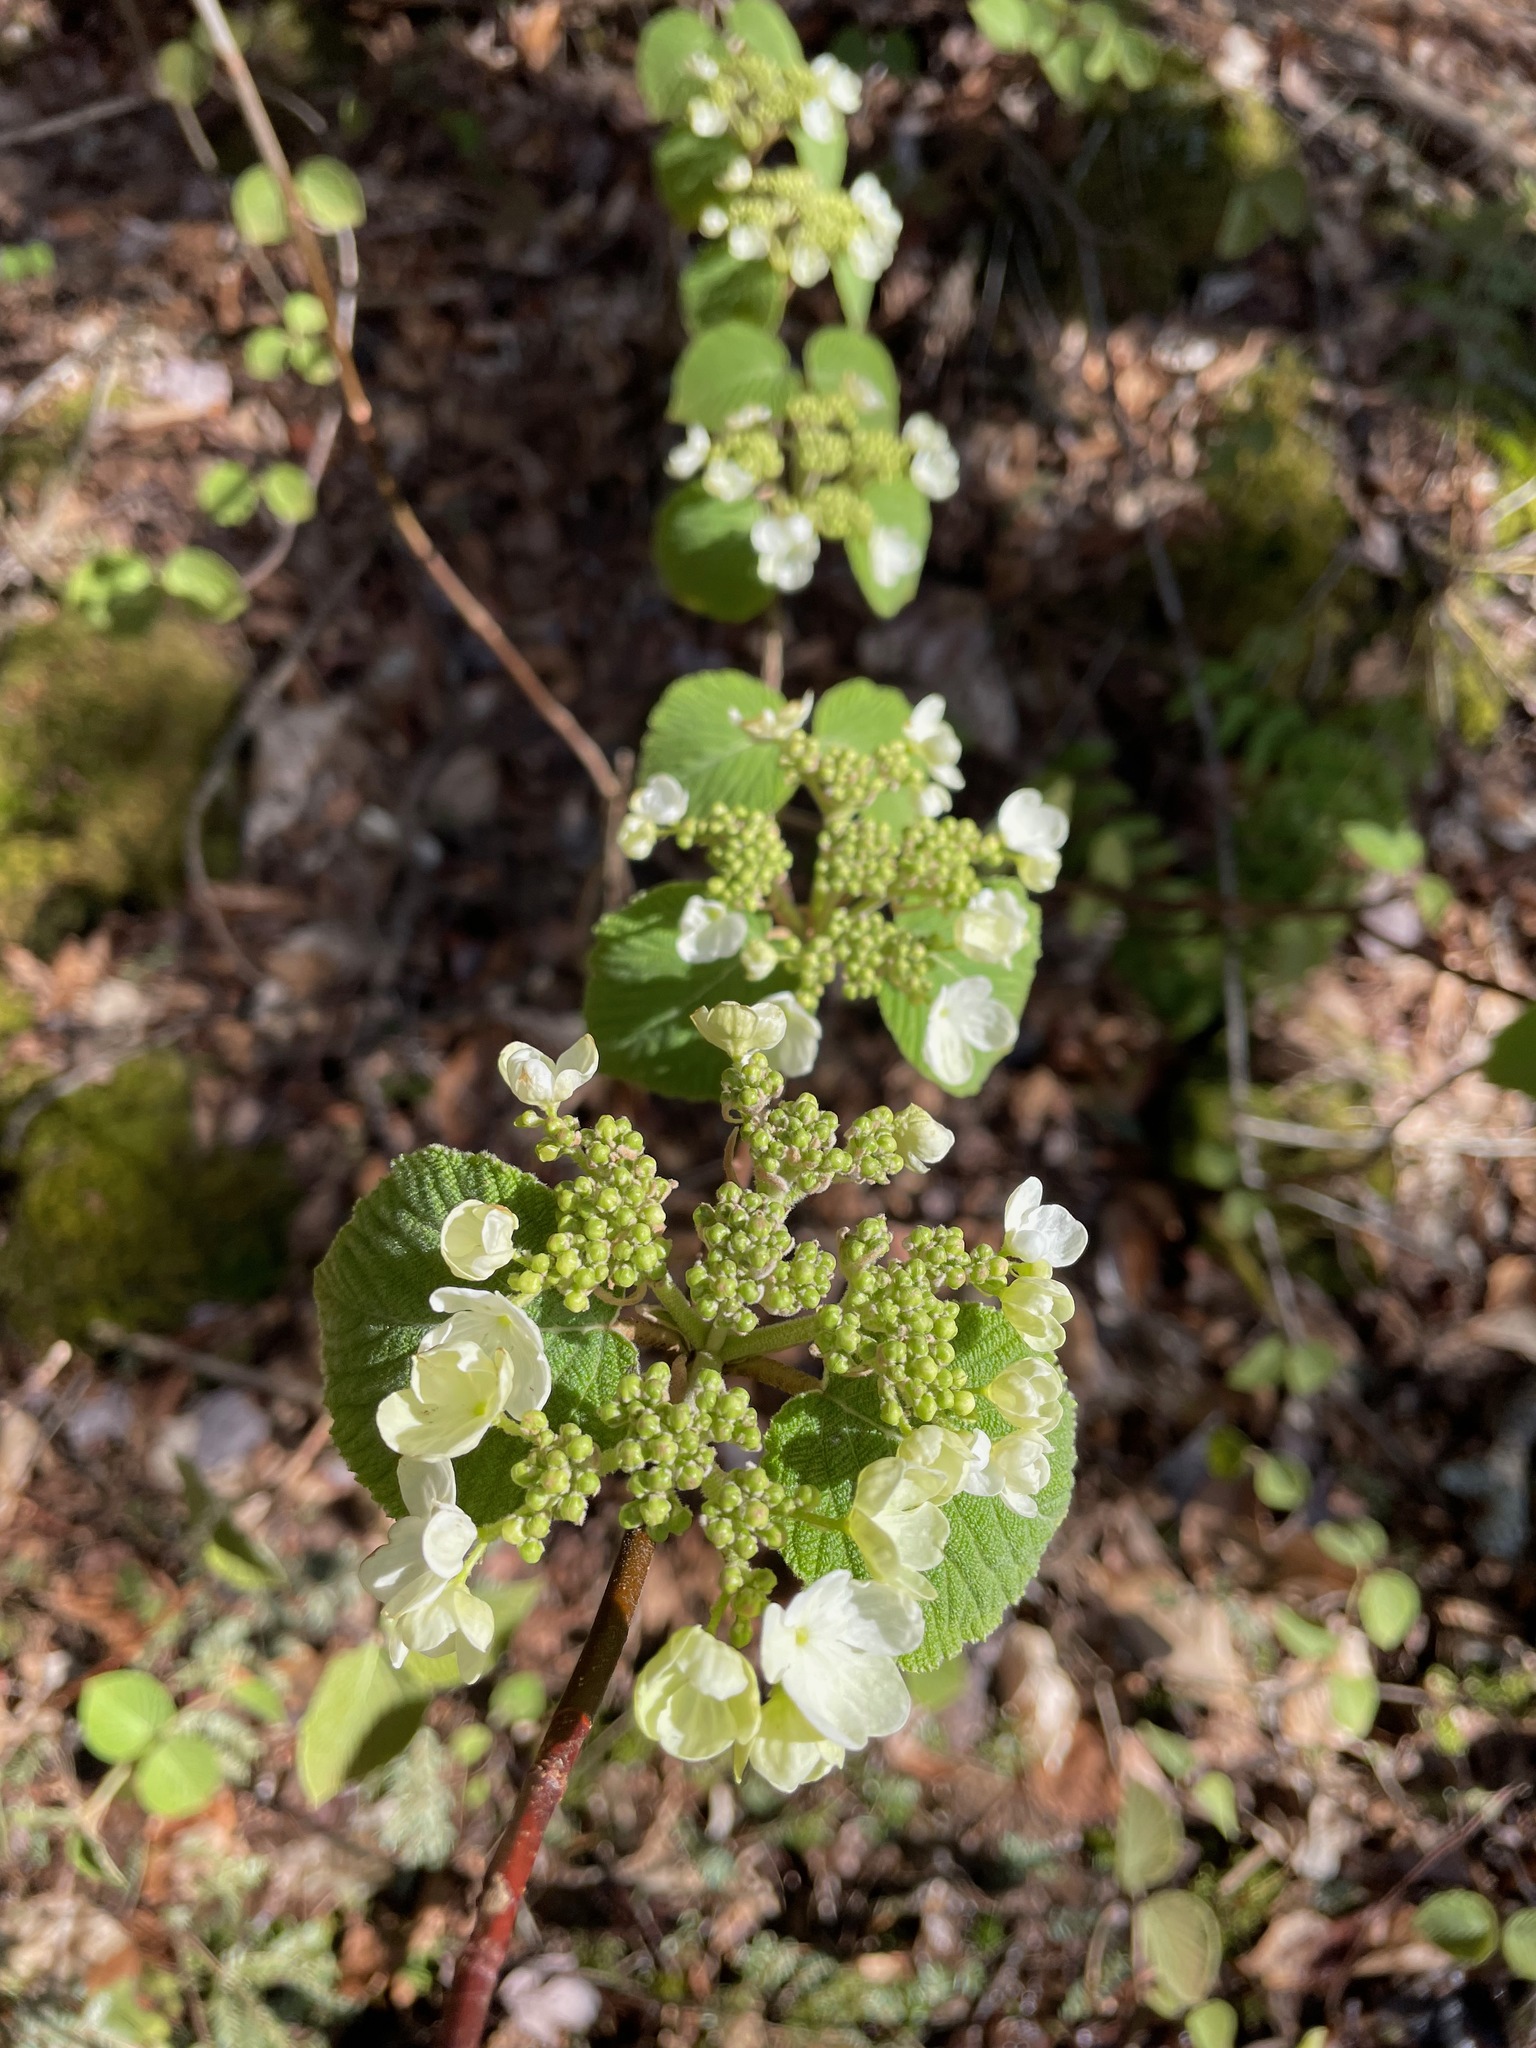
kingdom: Plantae
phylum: Tracheophyta
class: Magnoliopsida
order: Dipsacales
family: Viburnaceae
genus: Viburnum
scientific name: Viburnum lantanoides
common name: Hobblebush
